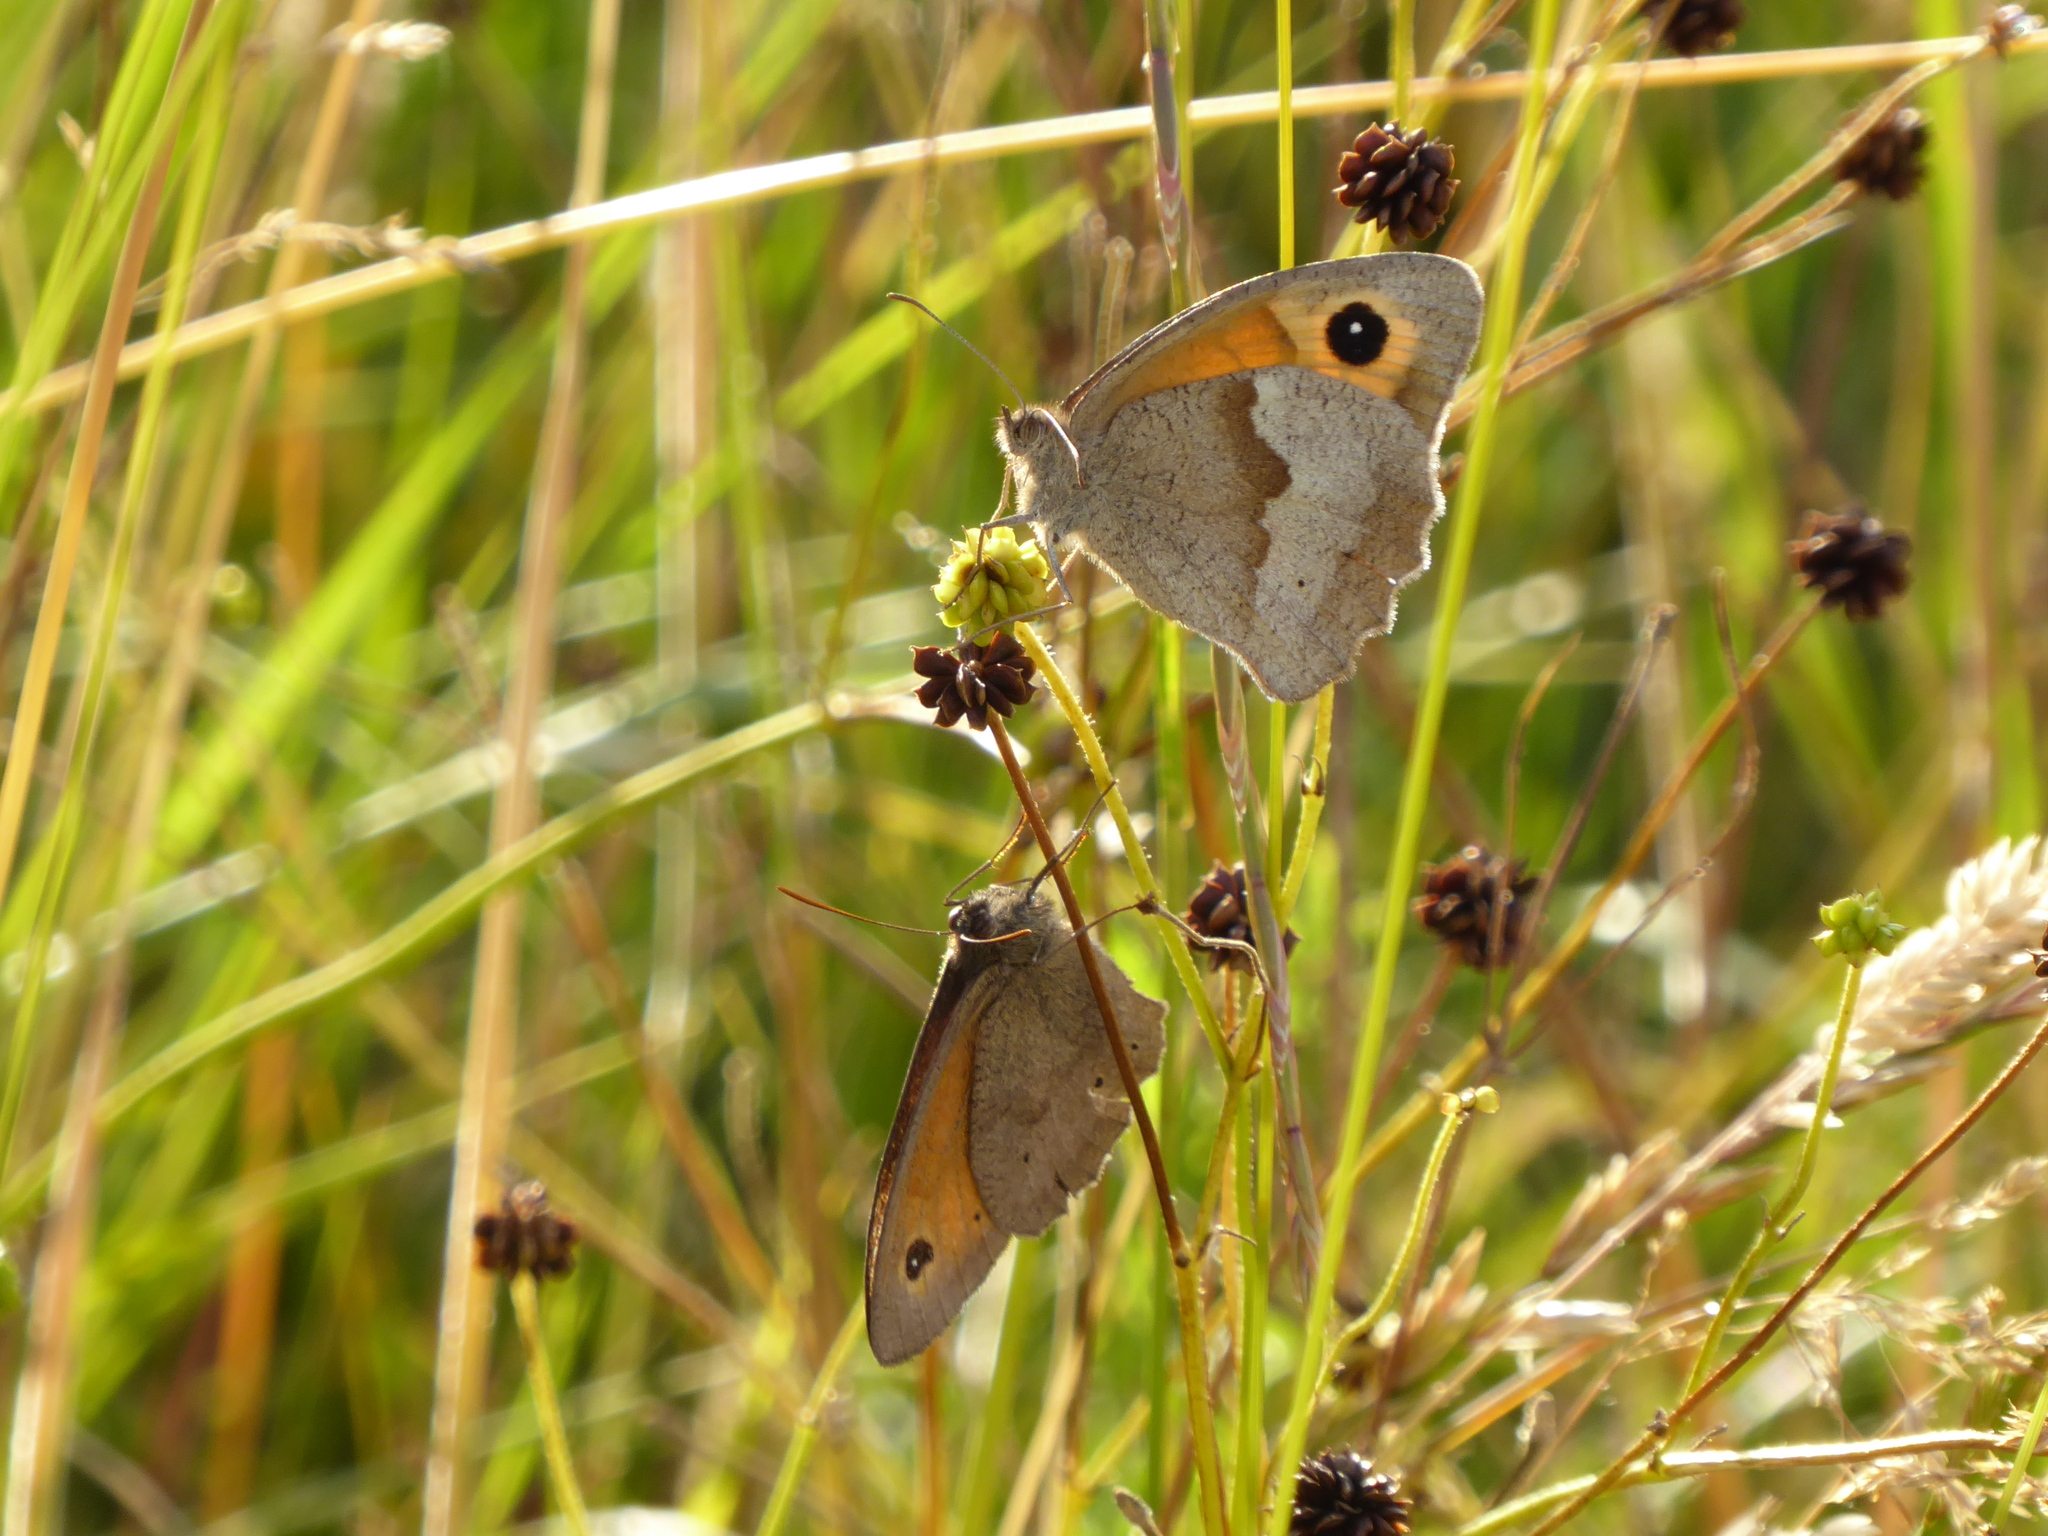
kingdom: Animalia
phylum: Arthropoda
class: Insecta
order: Lepidoptera
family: Nymphalidae
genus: Maniola
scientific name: Maniola jurtina
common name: Meadow brown
